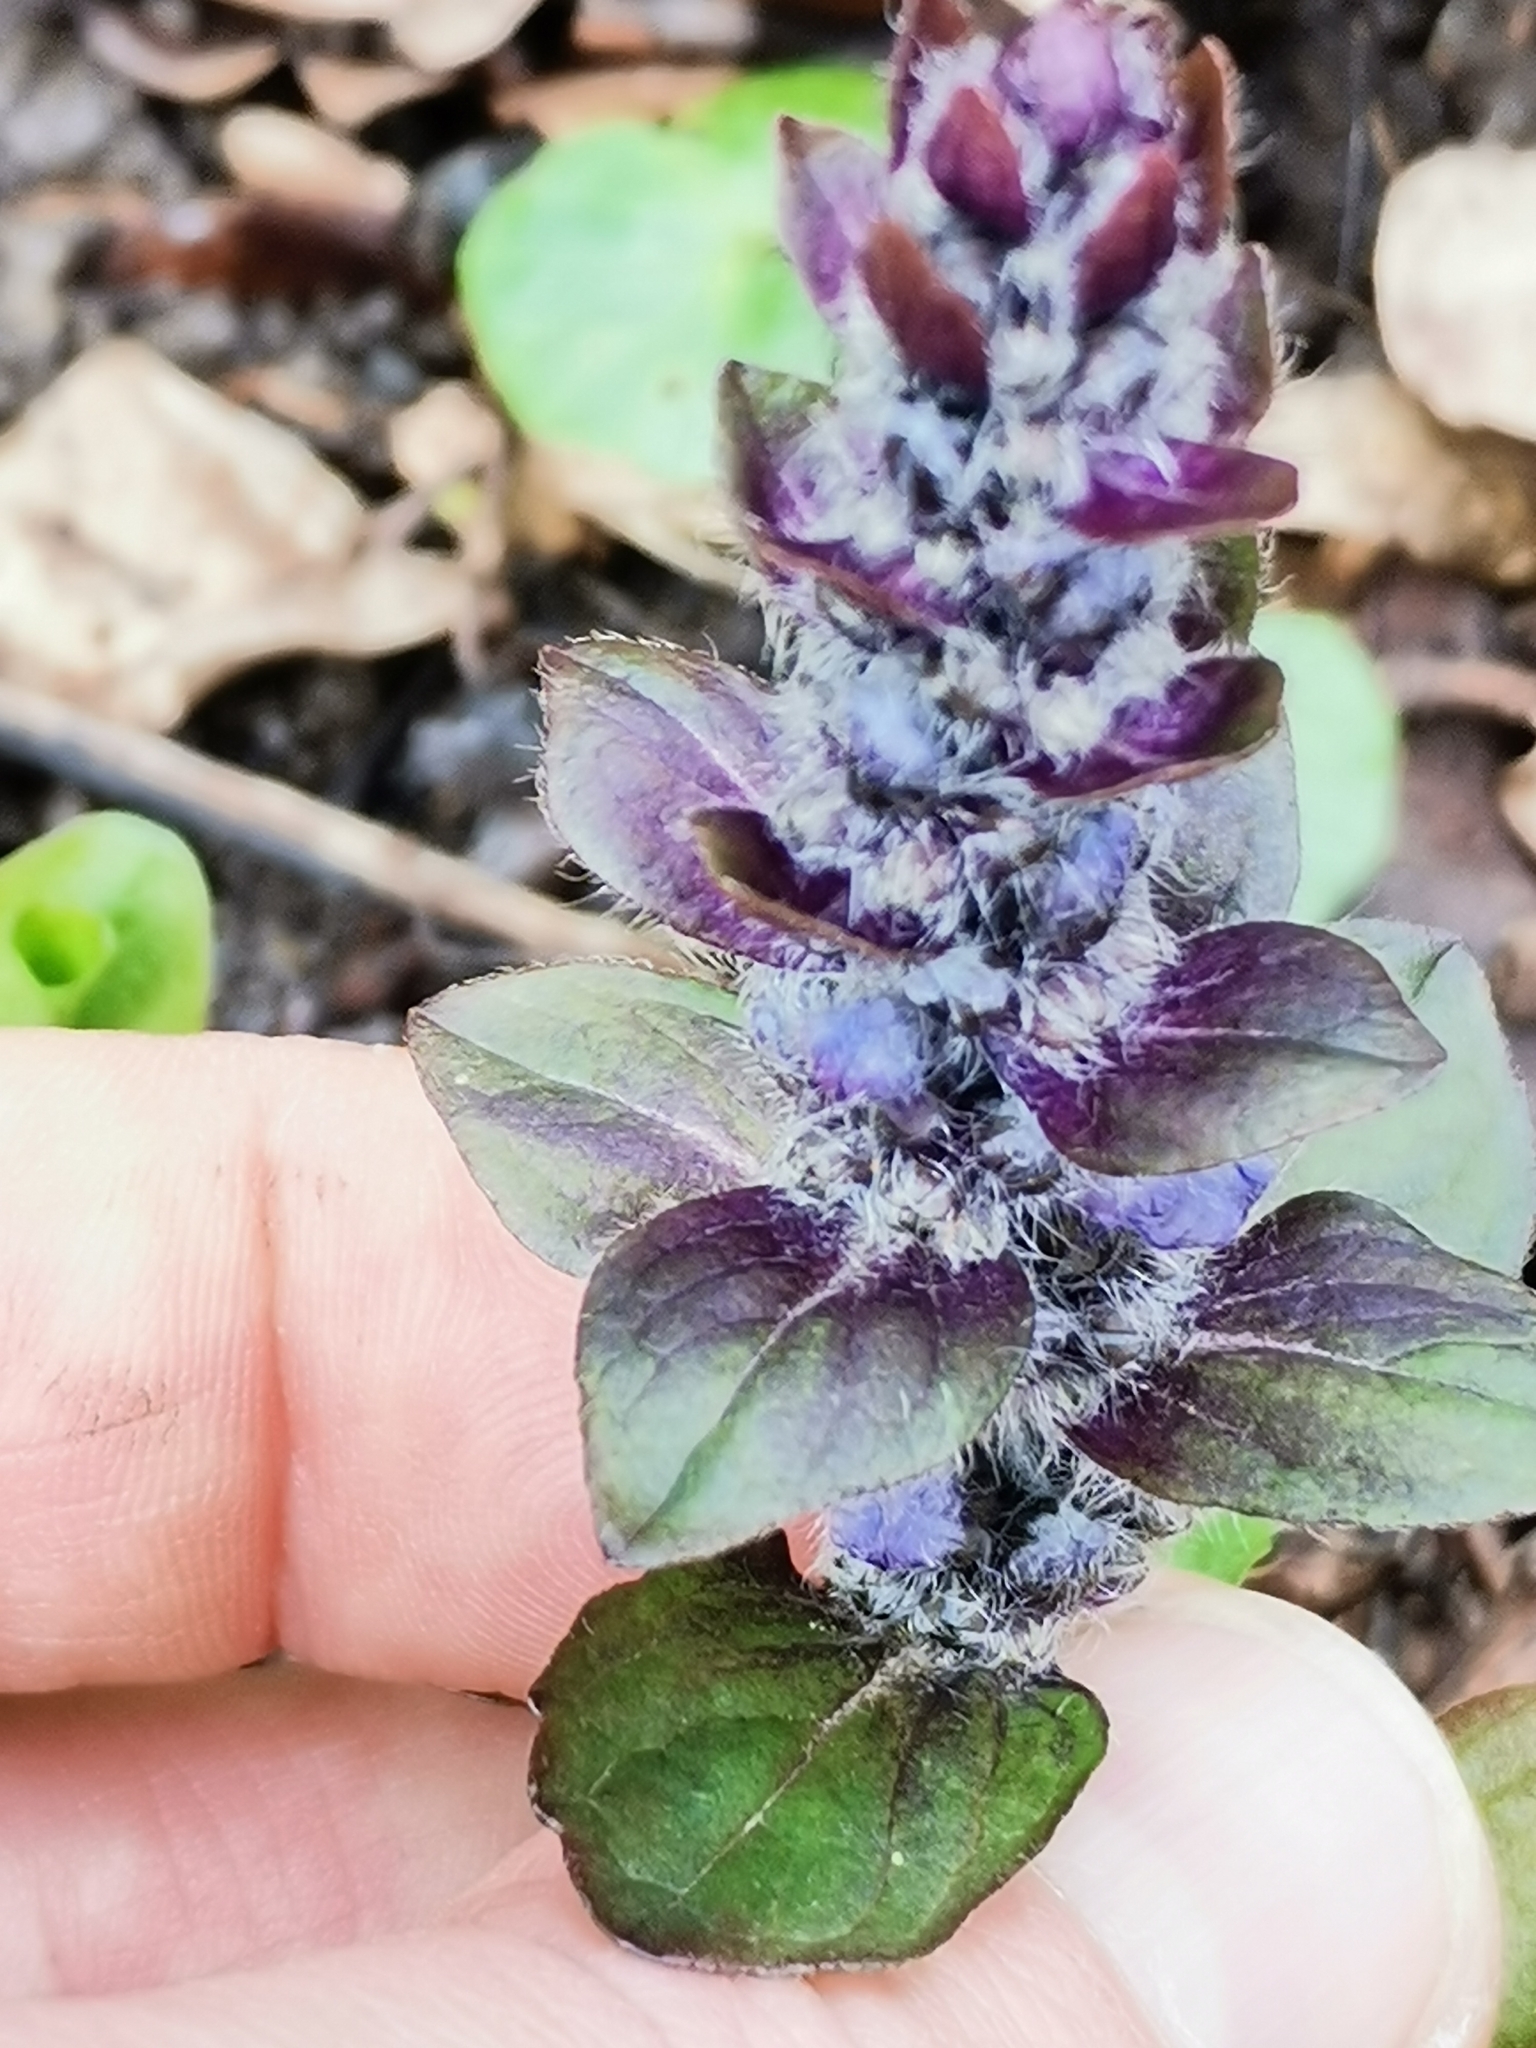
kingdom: Plantae
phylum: Tracheophyta
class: Magnoliopsida
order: Lamiales
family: Lamiaceae
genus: Ajuga
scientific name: Ajuga reptans
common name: Bugle
